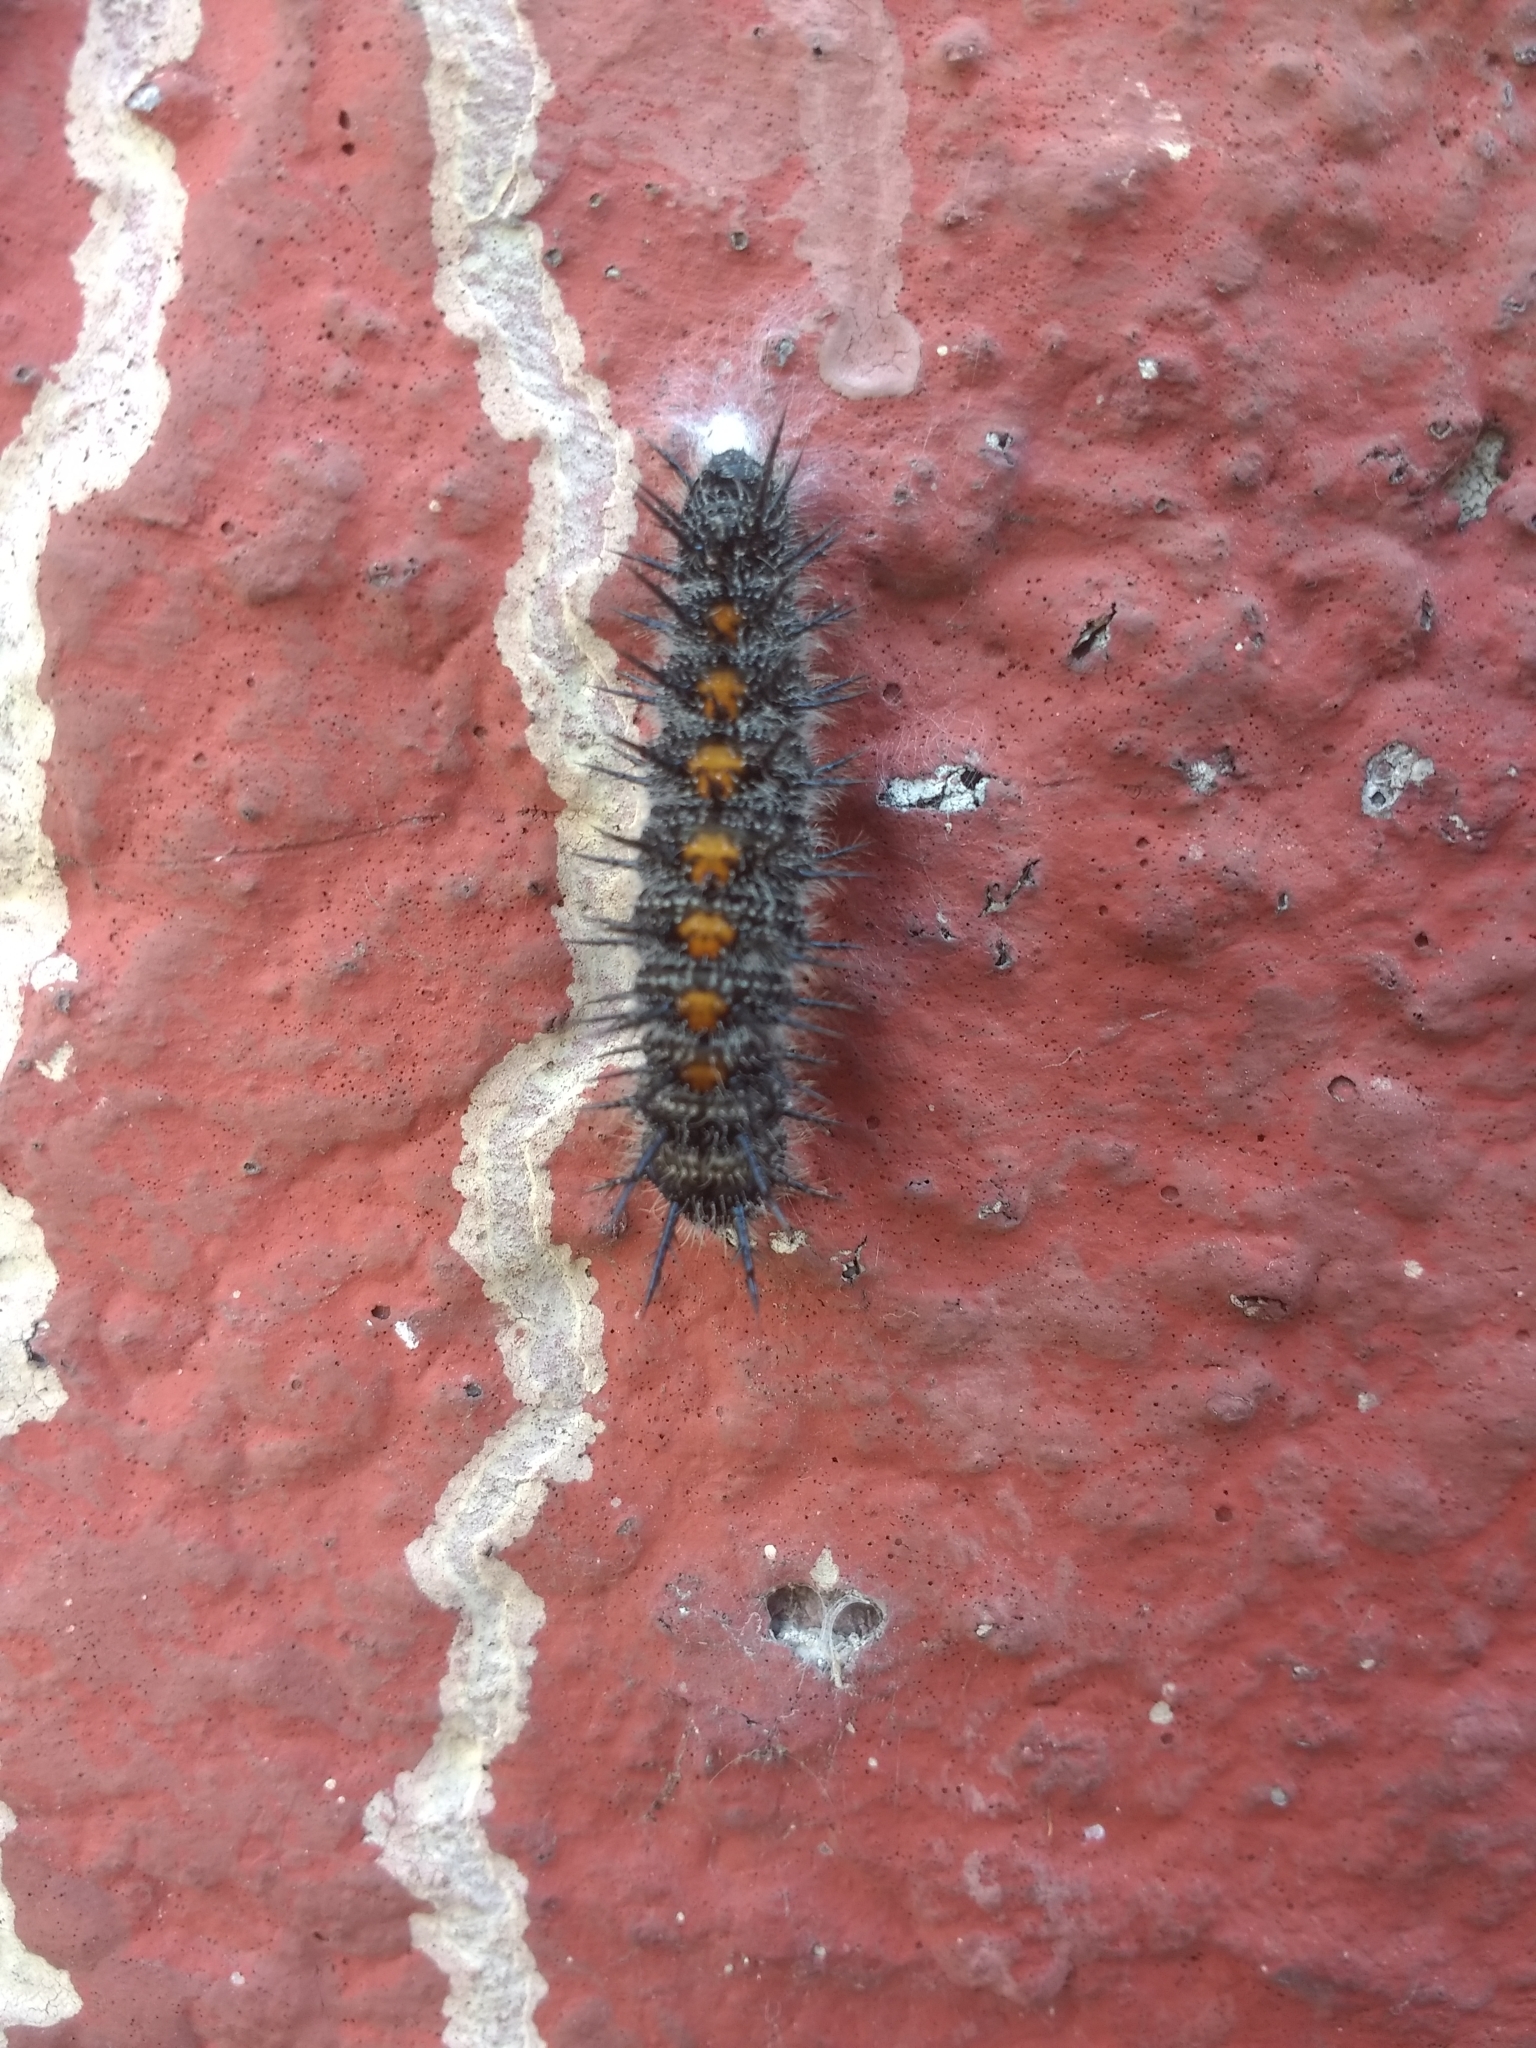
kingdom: Animalia
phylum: Arthropoda
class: Insecta
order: Lepidoptera
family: Nymphalidae
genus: Nymphalis
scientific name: Nymphalis antiopa
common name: Camberwell beauty
